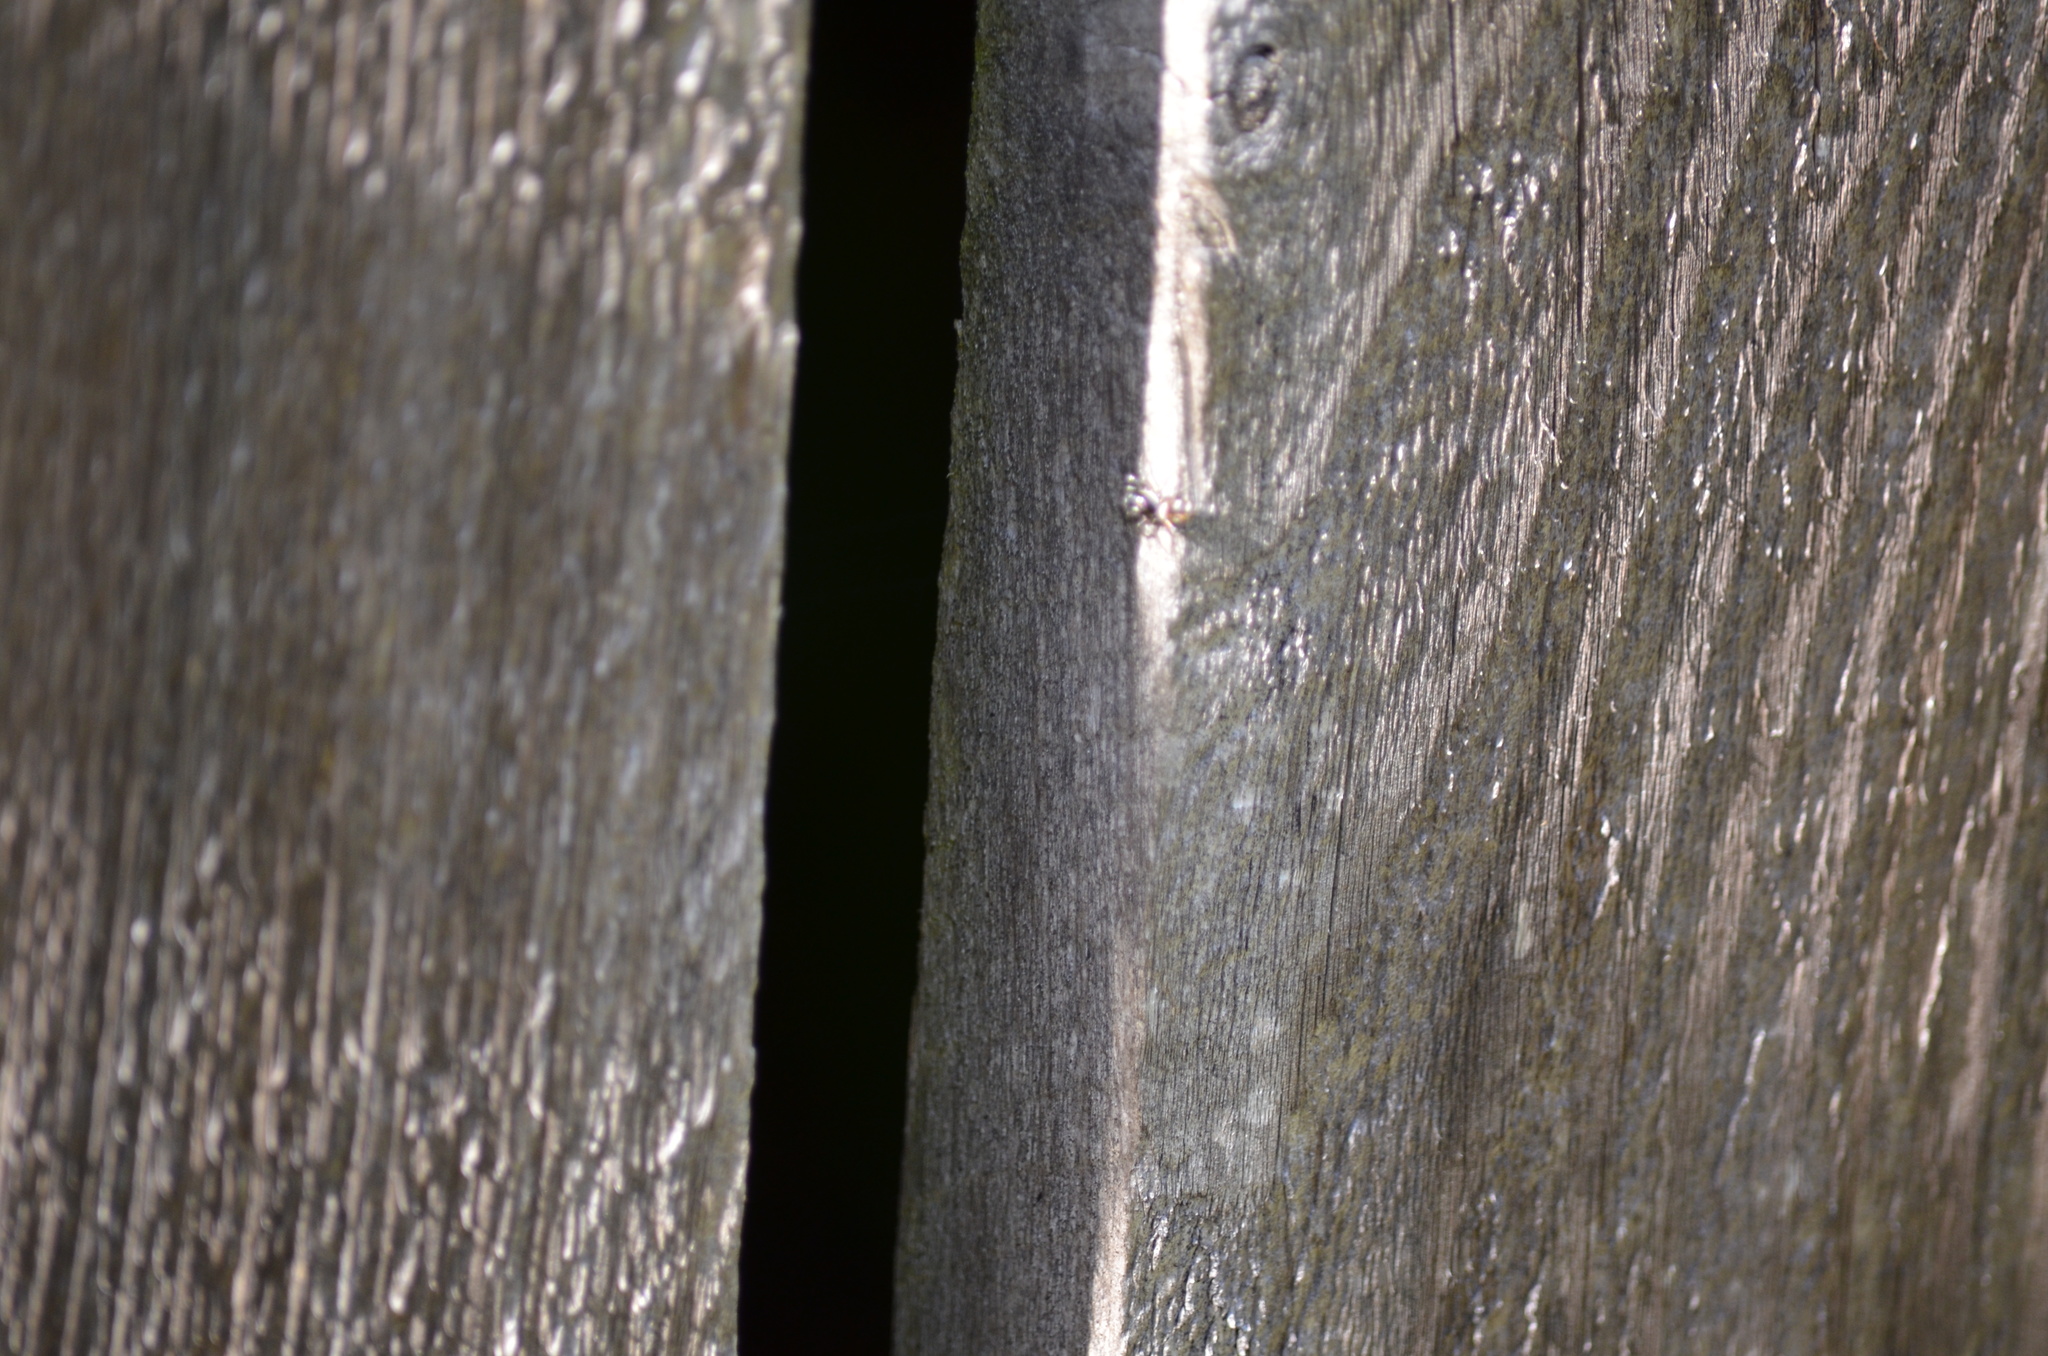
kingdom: Animalia
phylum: Arthropoda
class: Arachnida
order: Araneae
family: Salticidae
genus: Salticus
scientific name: Salticus scenicus
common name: Zebra jumper
